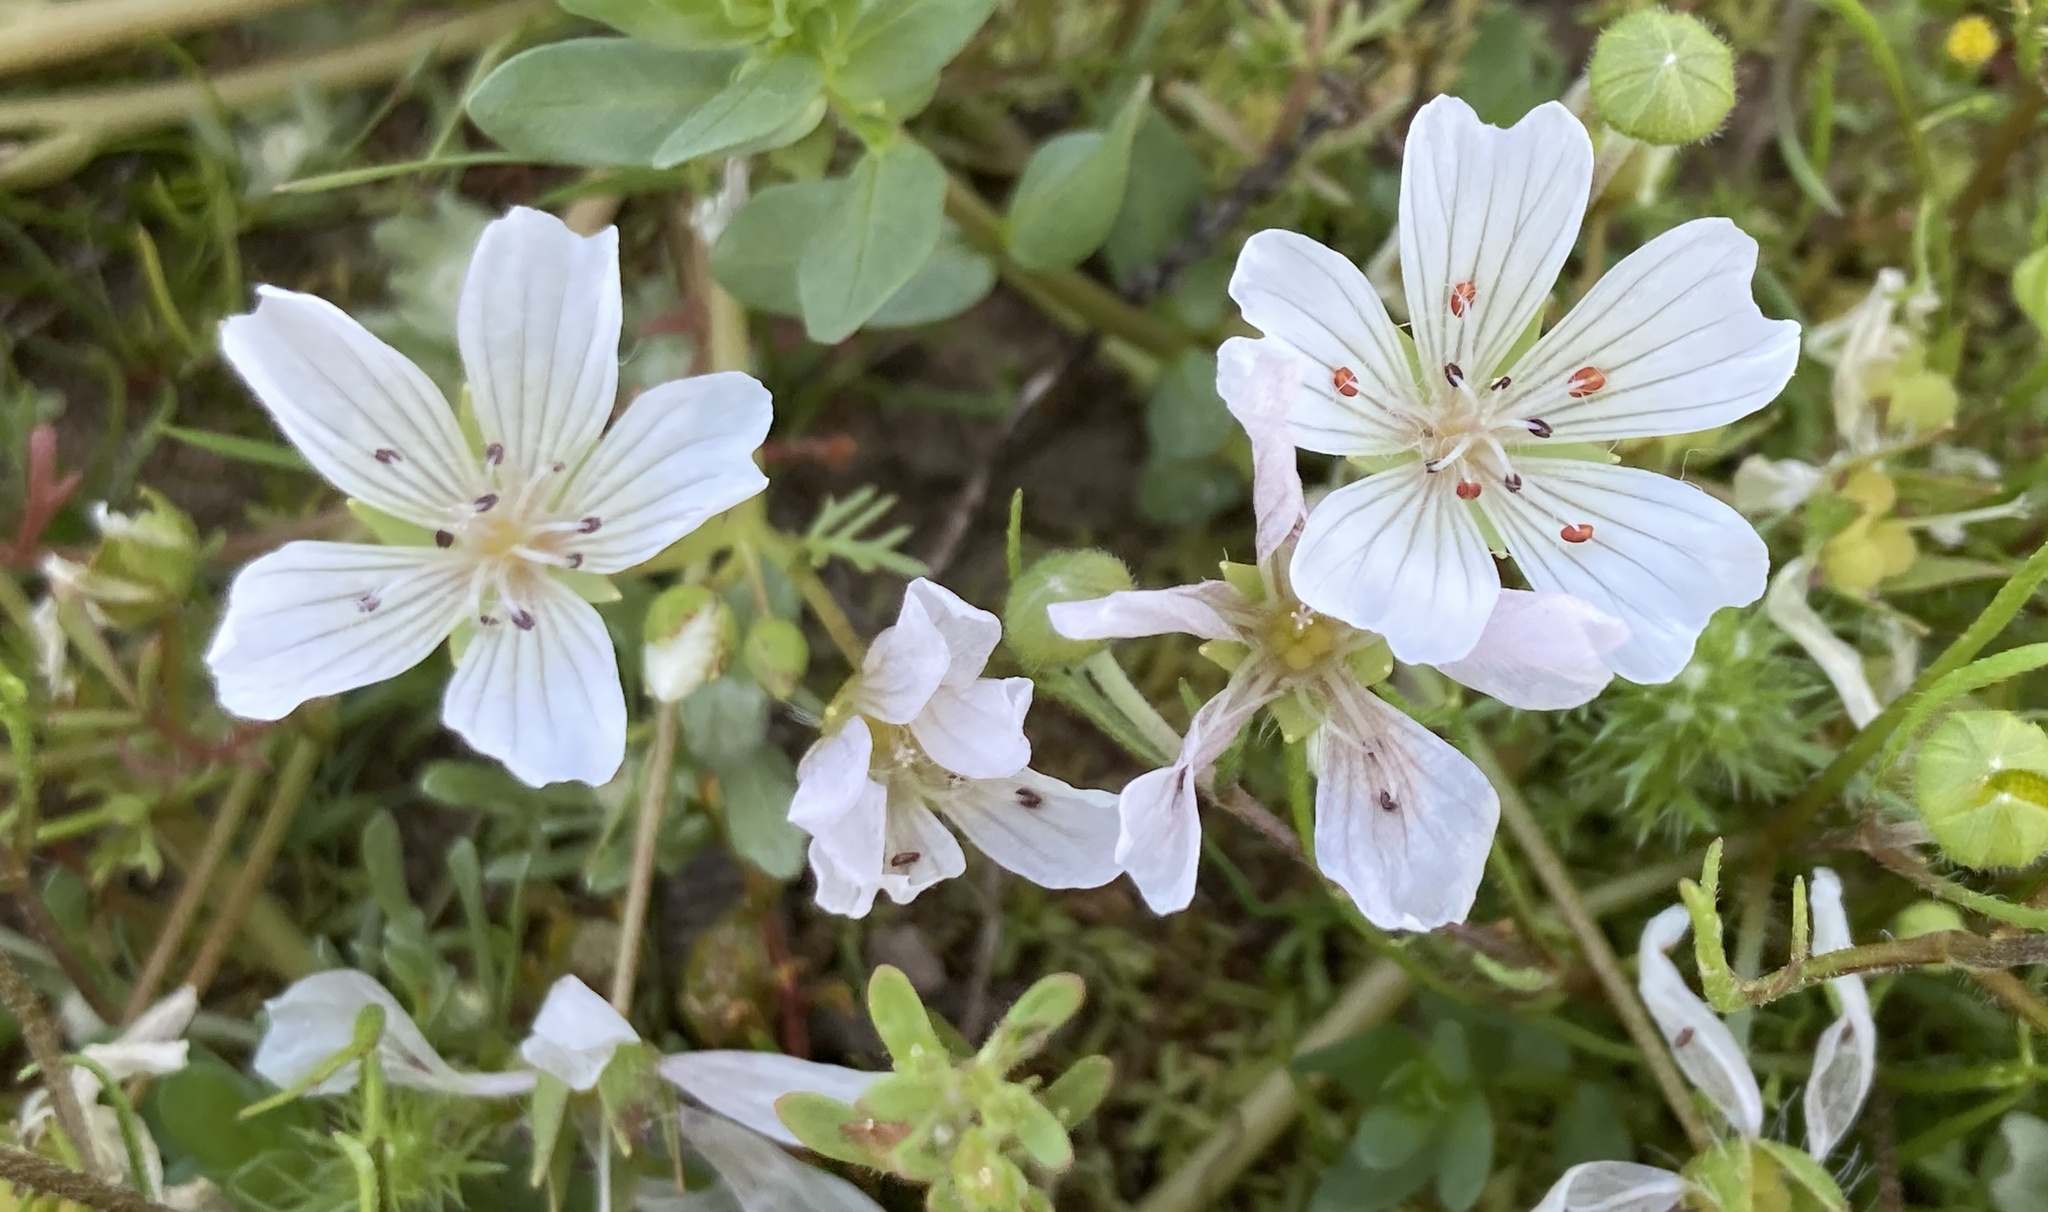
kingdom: Plantae
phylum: Tracheophyta
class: Magnoliopsida
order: Brassicales
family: Limnanthaceae
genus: Limnanthes
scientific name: Limnanthes douglasii
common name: Meadow-foam
